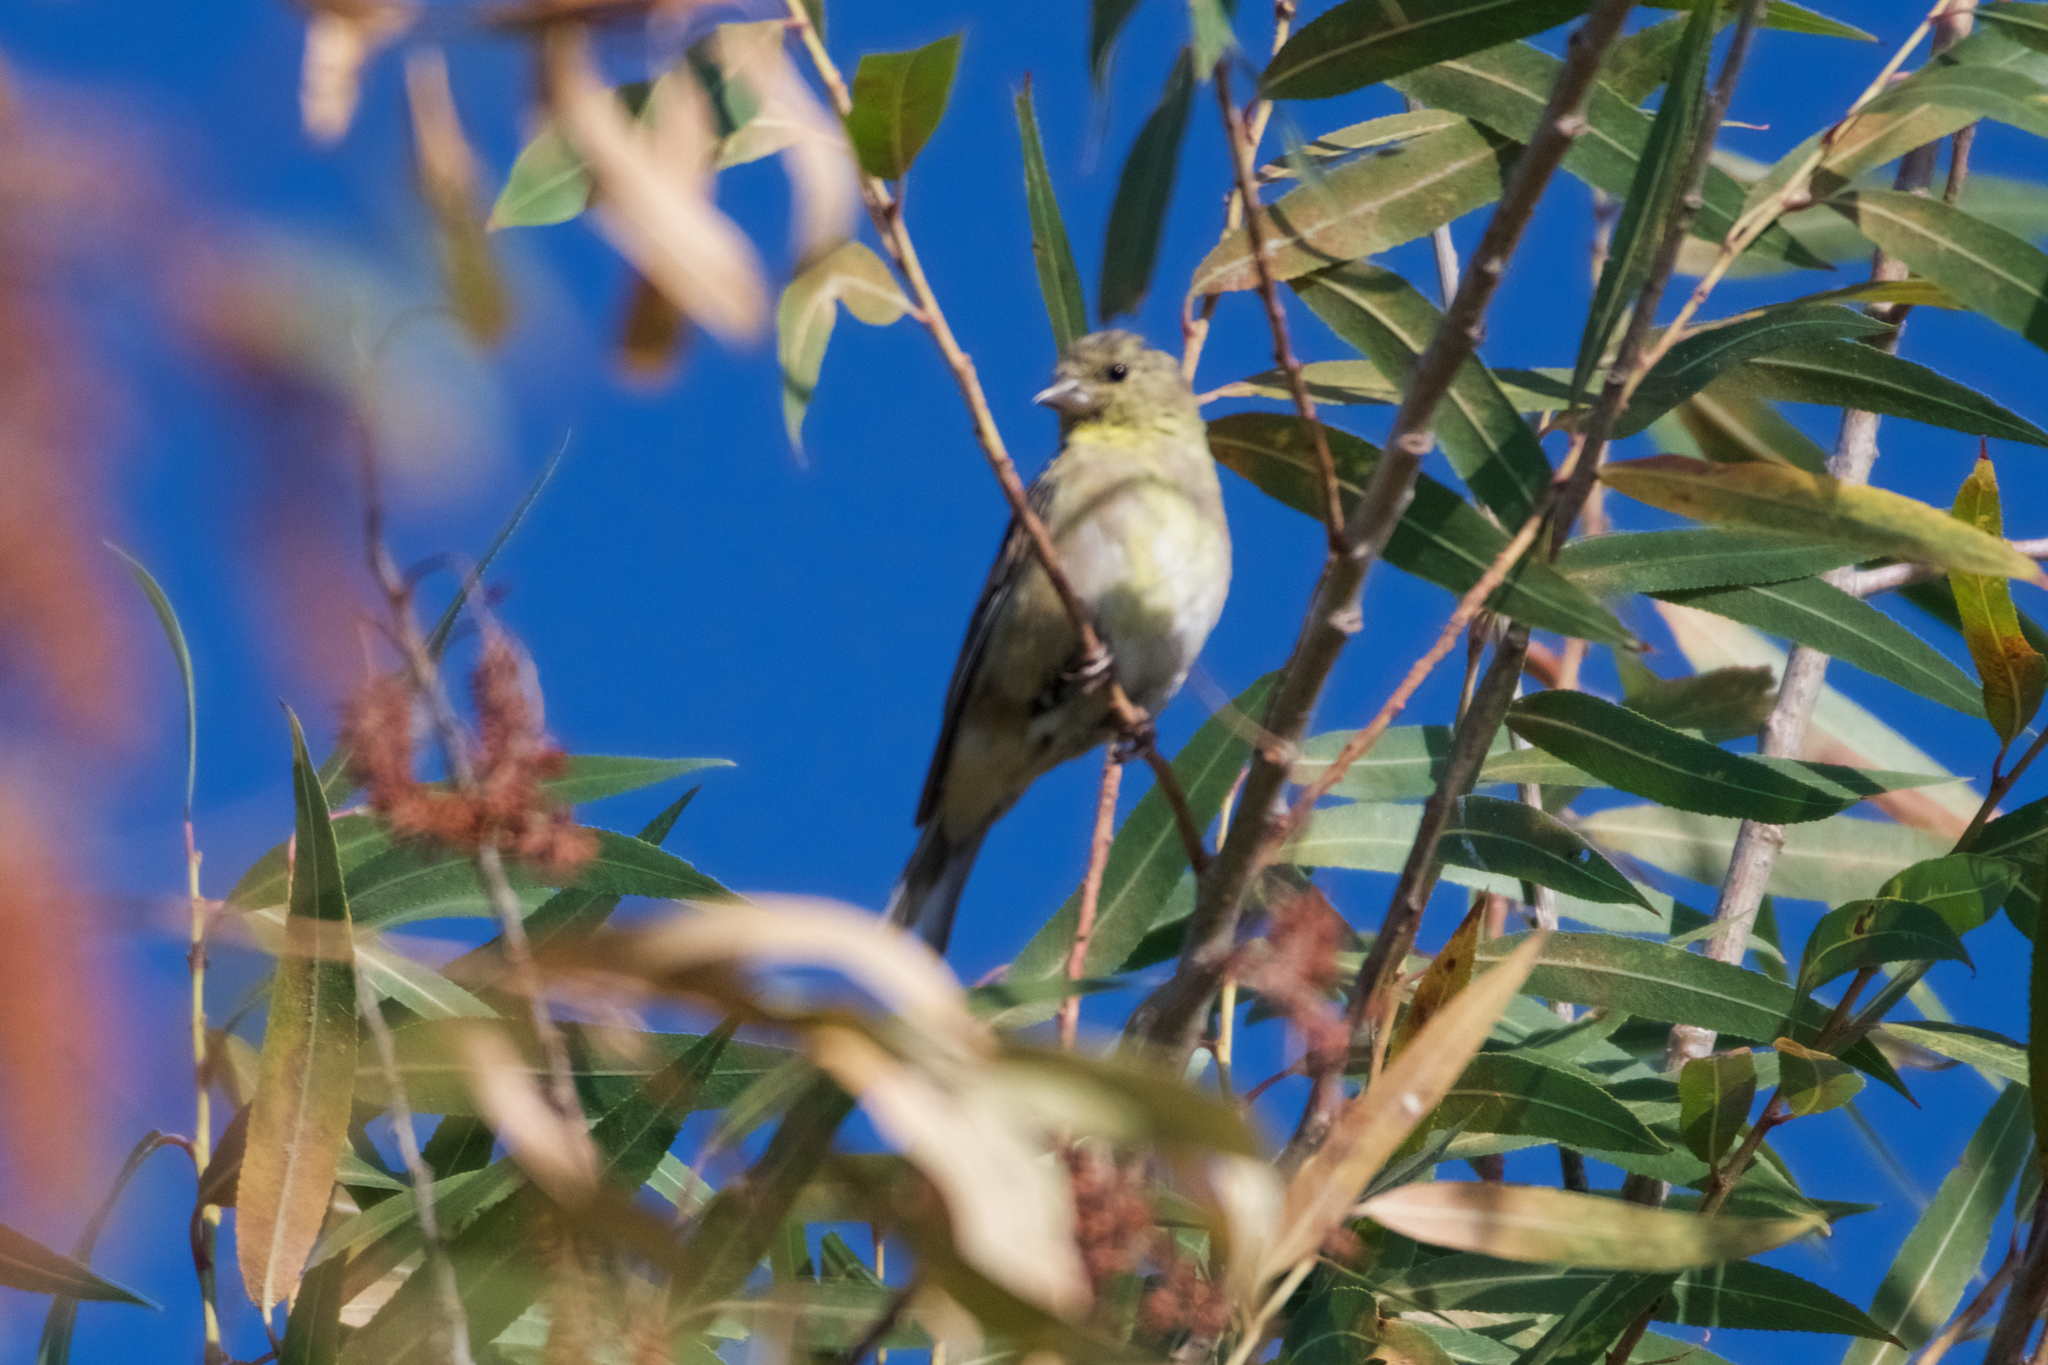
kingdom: Animalia
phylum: Chordata
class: Aves
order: Passeriformes
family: Fringillidae
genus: Spinus
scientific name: Spinus tristis
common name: American goldfinch
